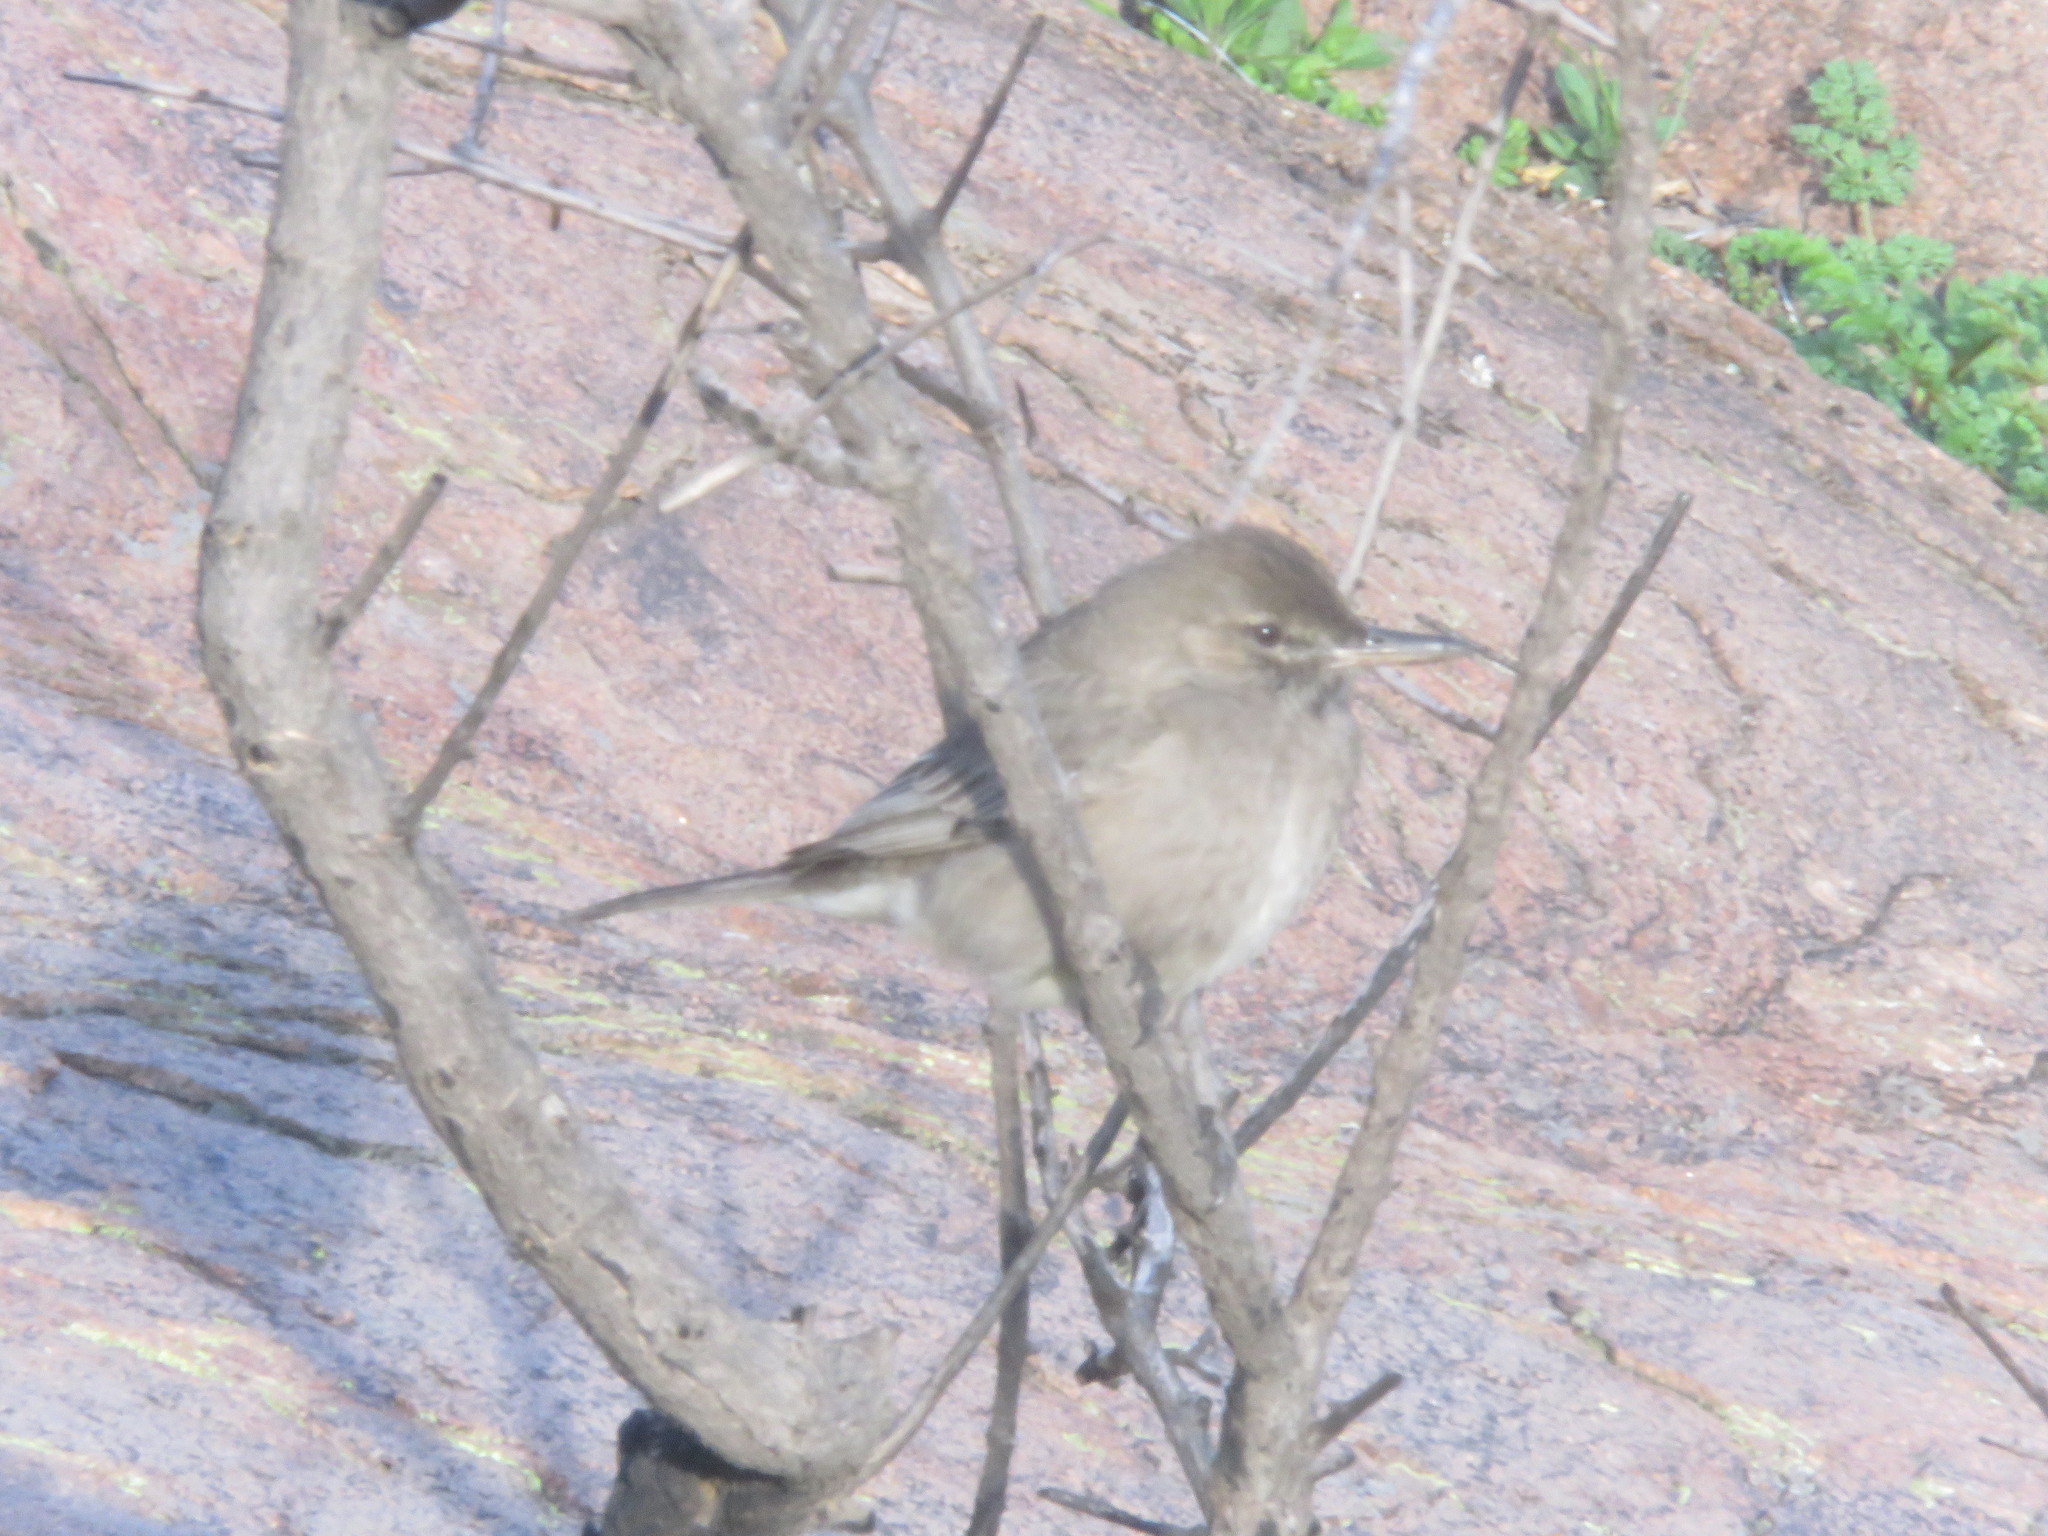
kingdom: Animalia
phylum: Chordata
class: Aves
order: Passeriformes
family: Tyrannidae
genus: Agriornis
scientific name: Agriornis micropterus
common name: Grey-bellied shrike-tyrant
